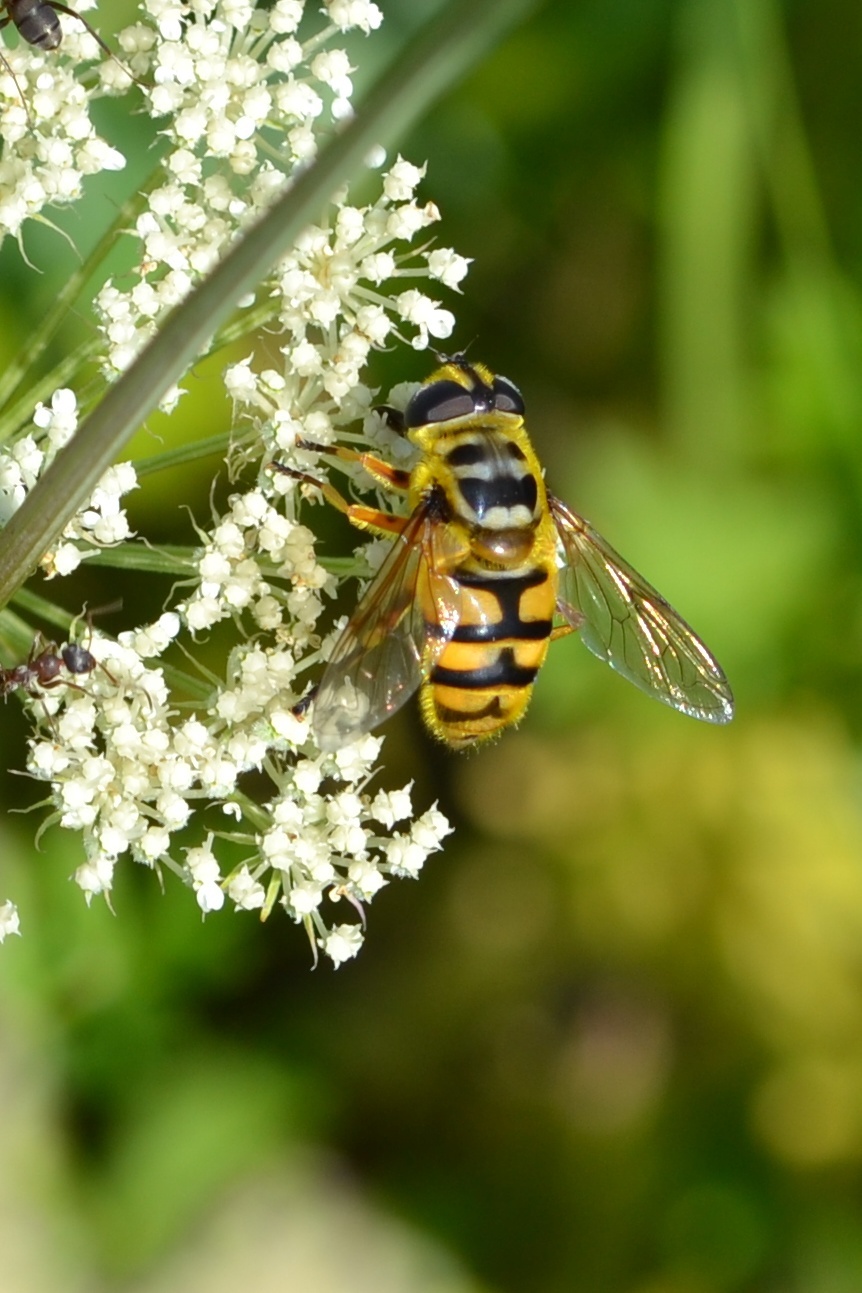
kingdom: Animalia
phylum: Arthropoda
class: Insecta
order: Diptera
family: Syrphidae
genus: Myathropa
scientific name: Myathropa florea
